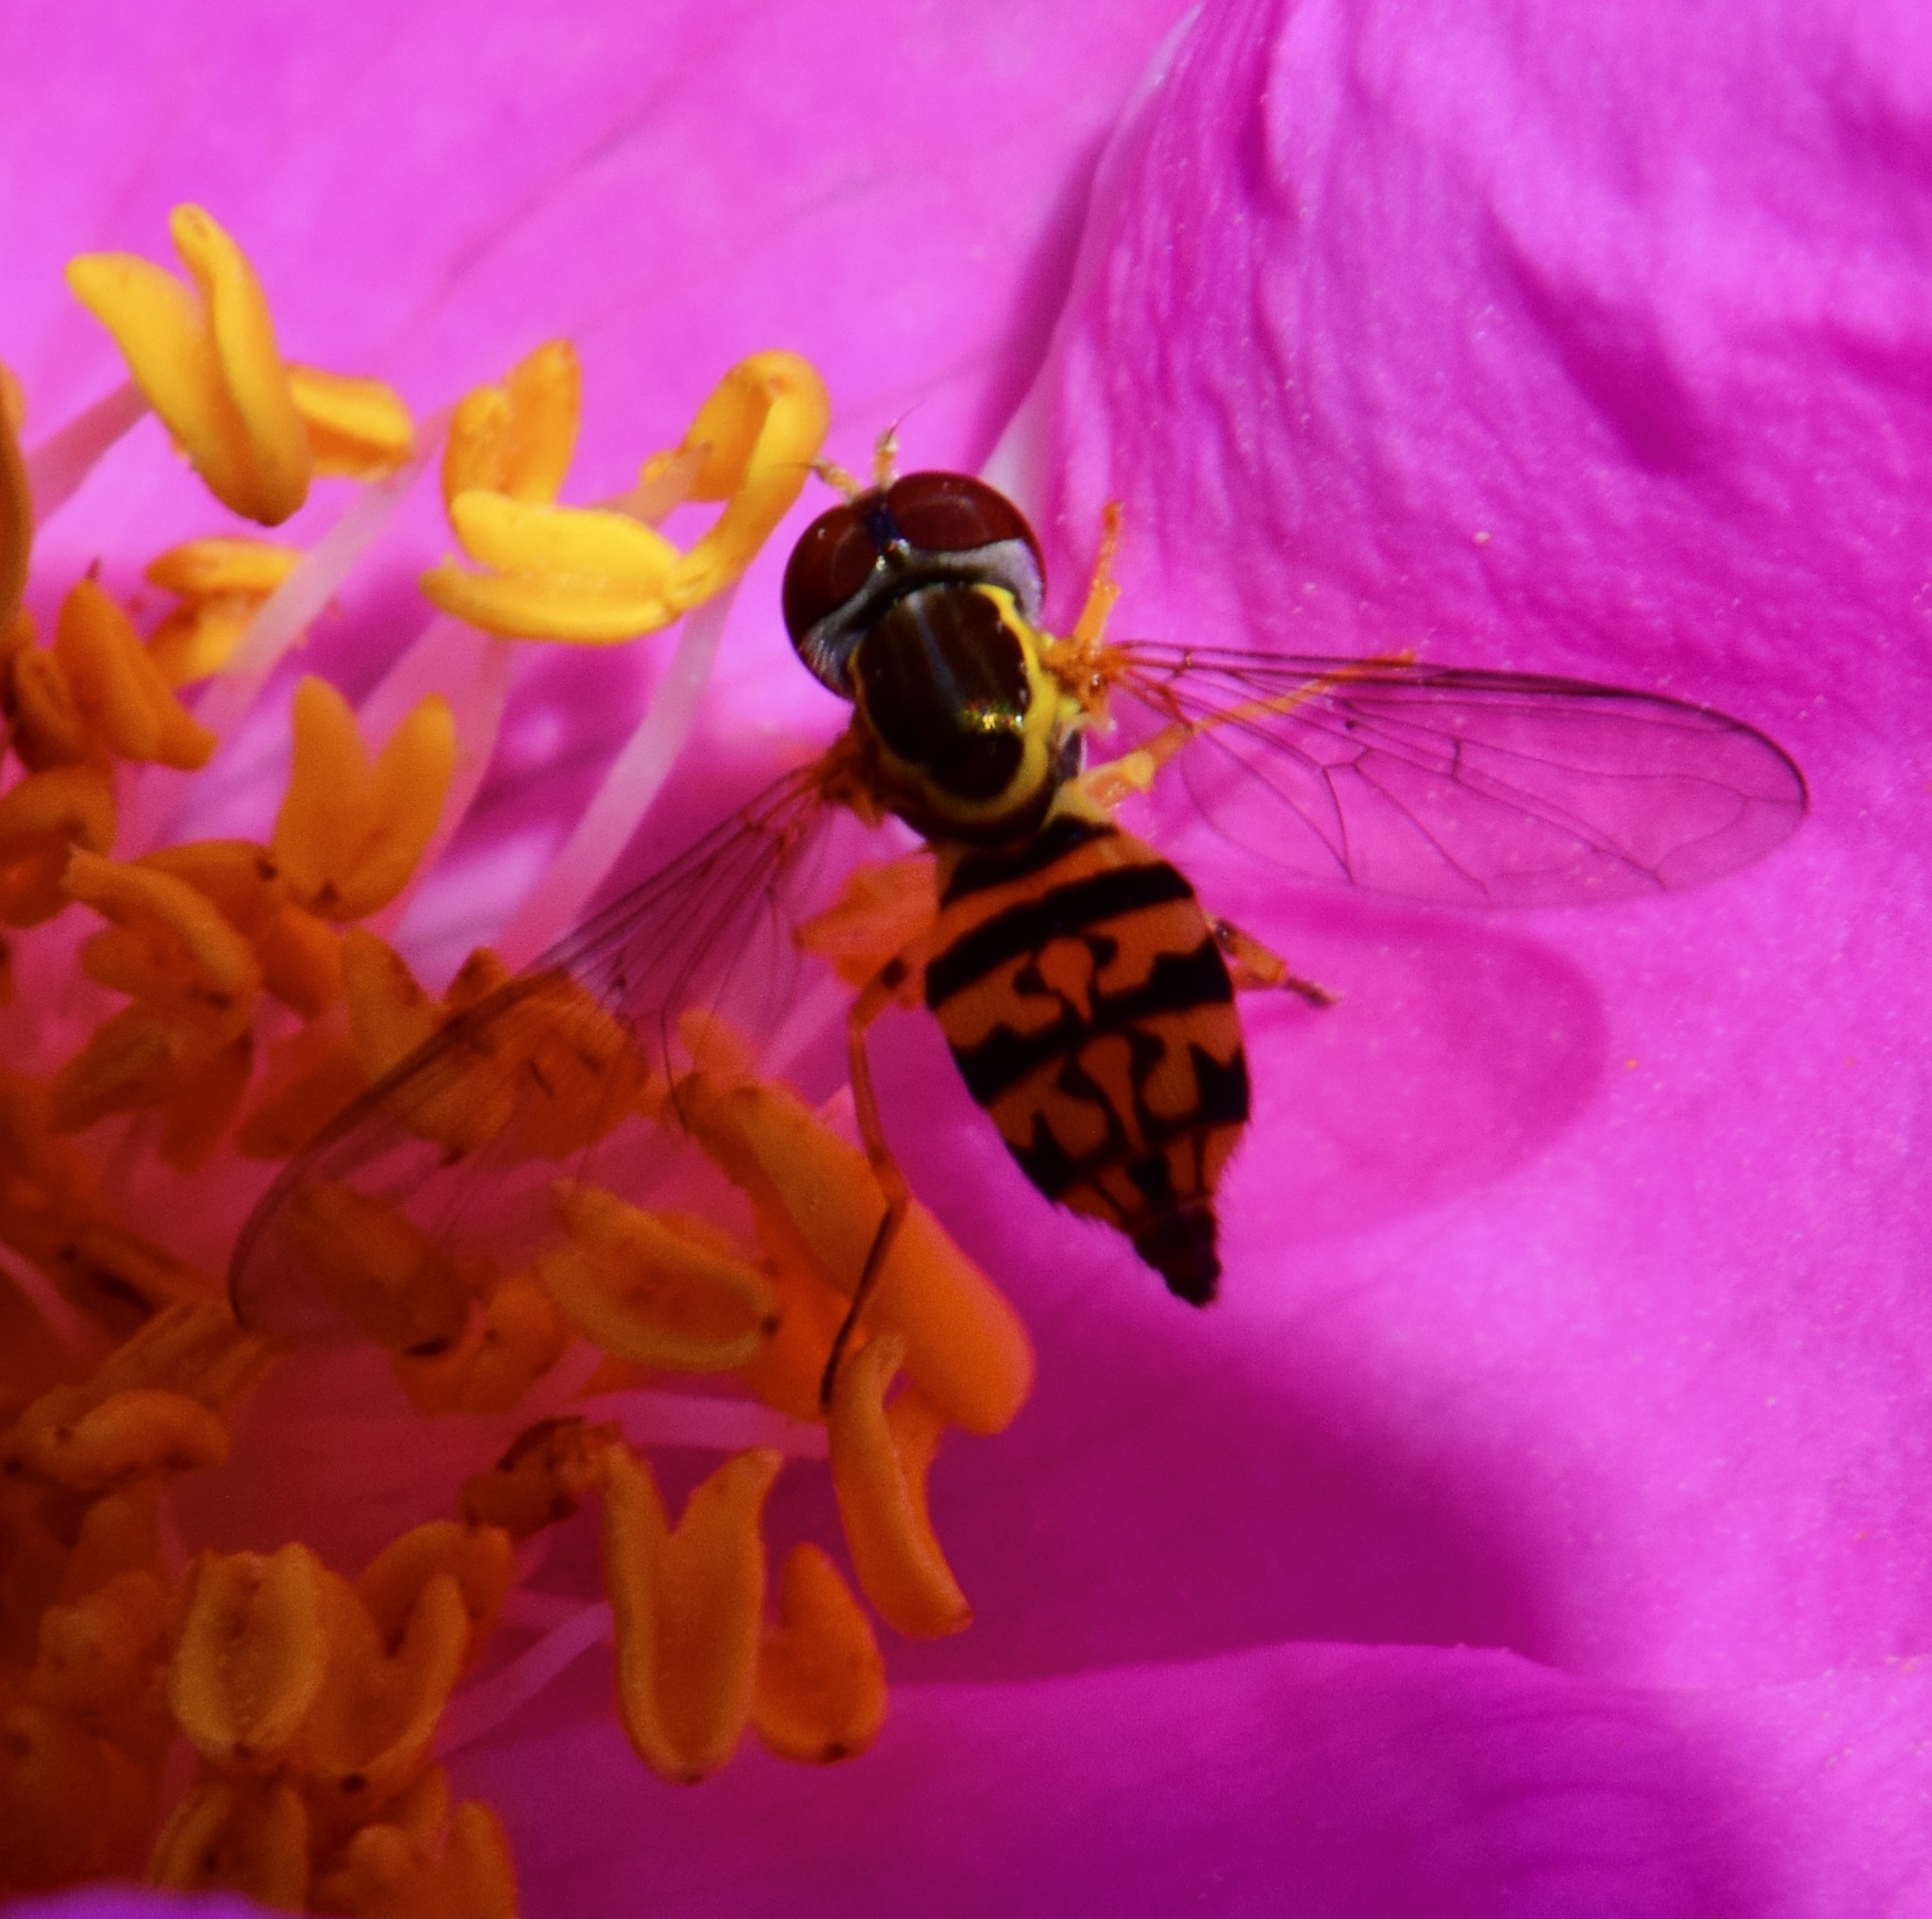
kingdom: Animalia
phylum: Arthropoda
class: Insecta
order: Diptera
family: Syrphidae
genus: Toxomerus
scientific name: Toxomerus geminatus
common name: Eastern calligrapher
